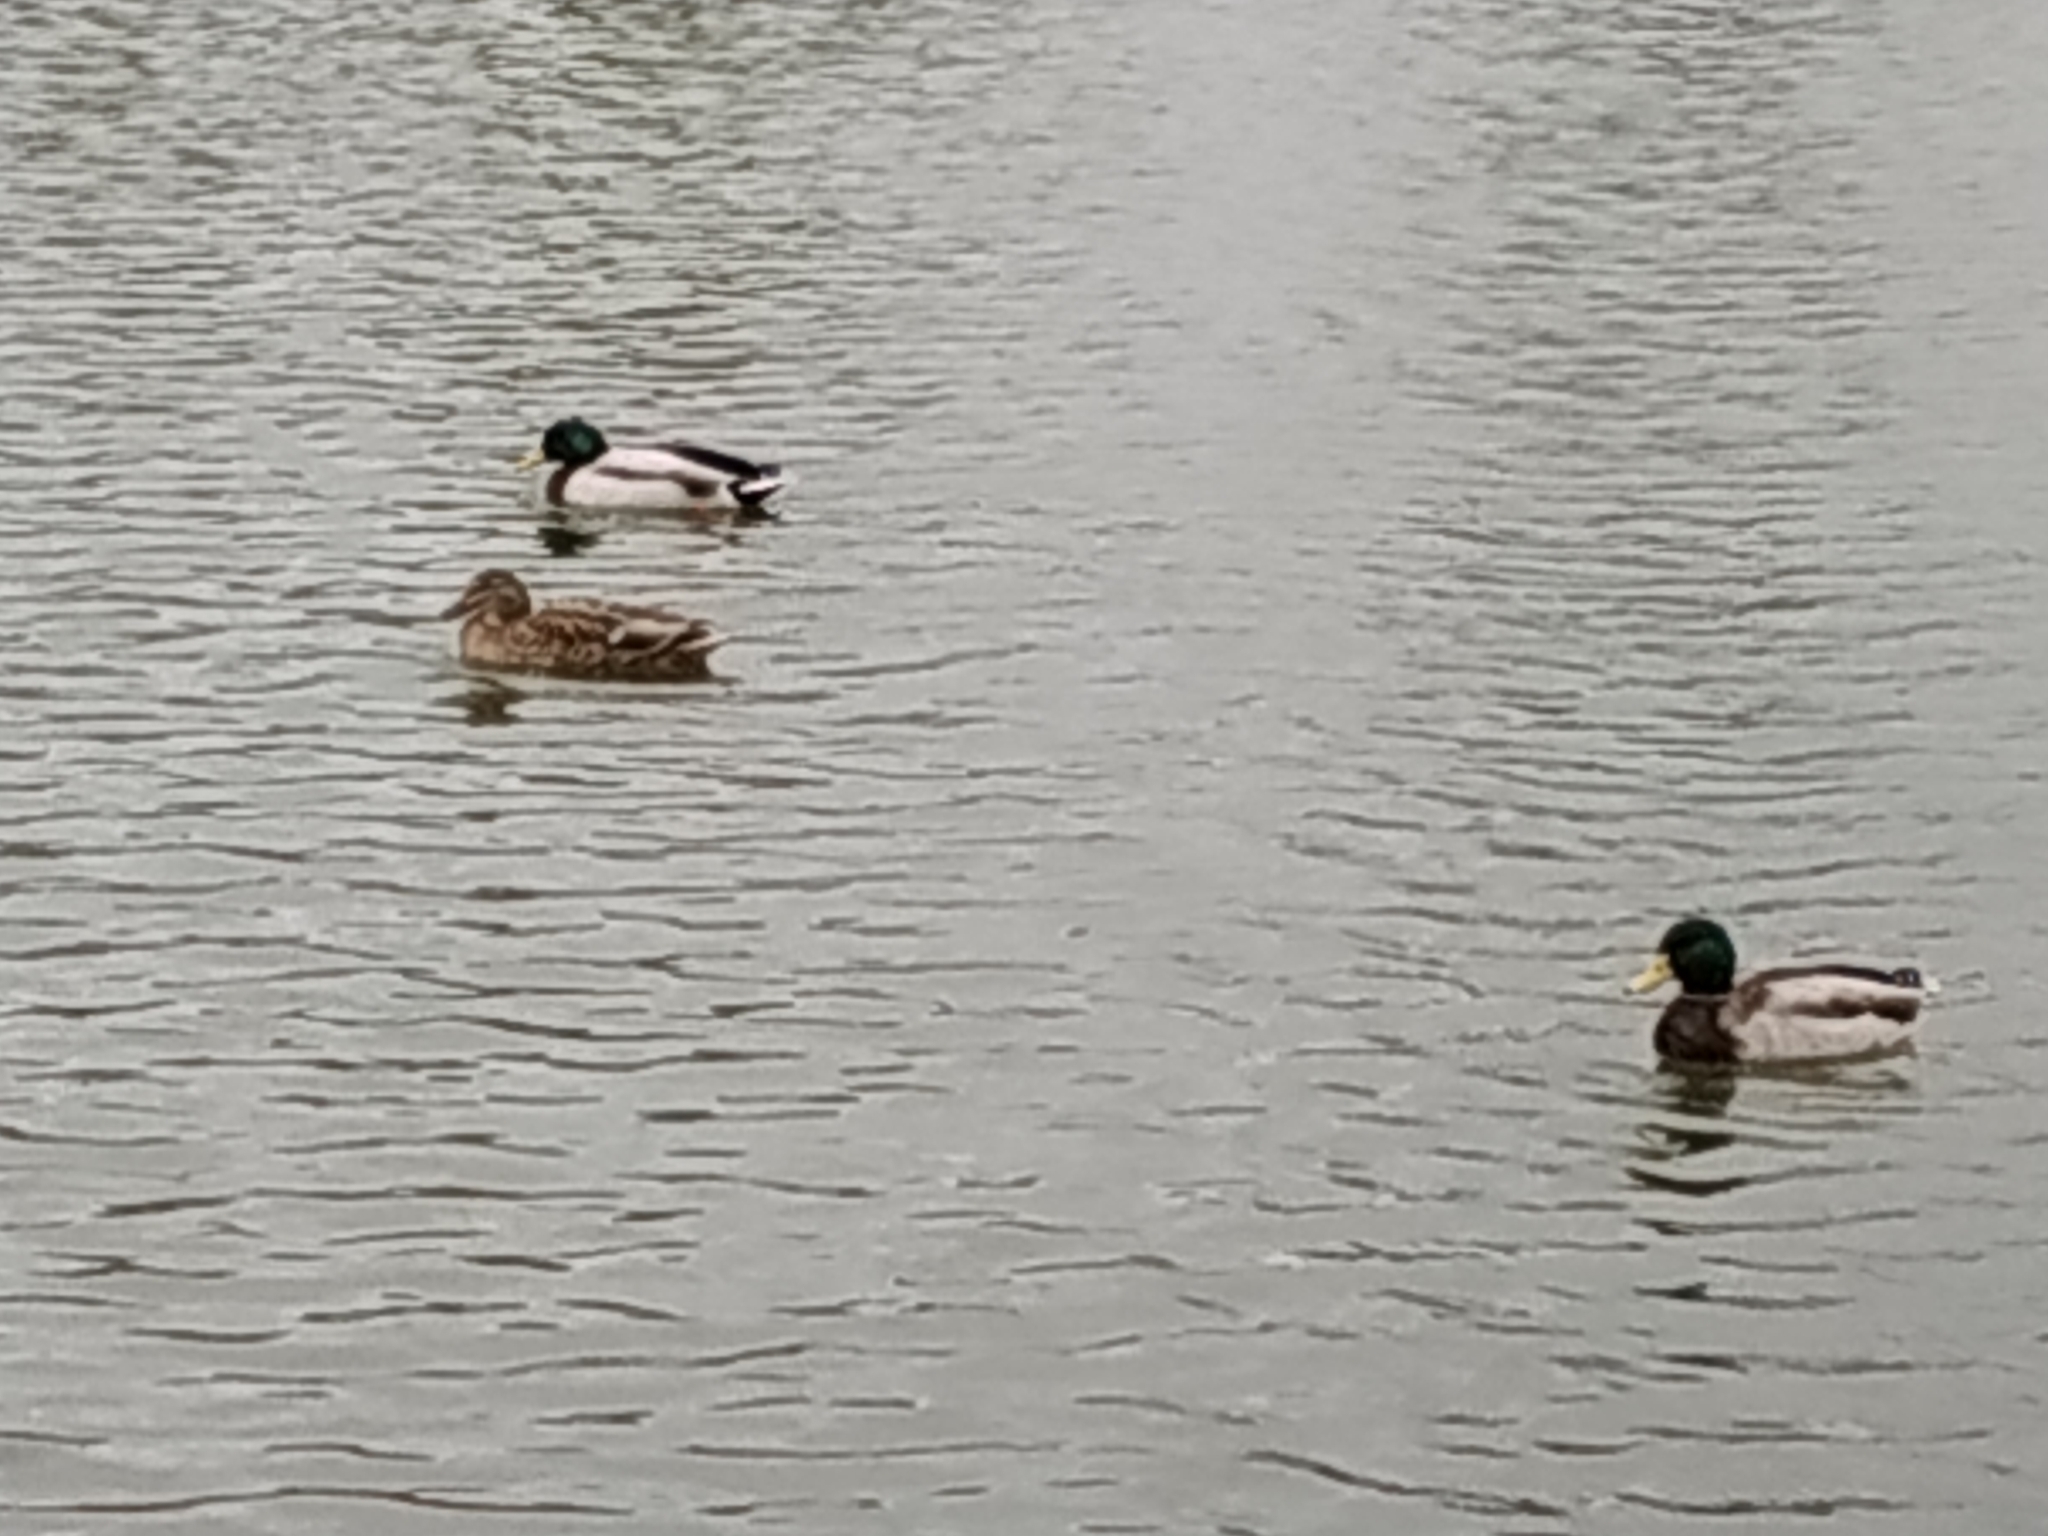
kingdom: Animalia
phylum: Chordata
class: Aves
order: Anseriformes
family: Anatidae
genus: Anas
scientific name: Anas platyrhynchos
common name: Mallard
